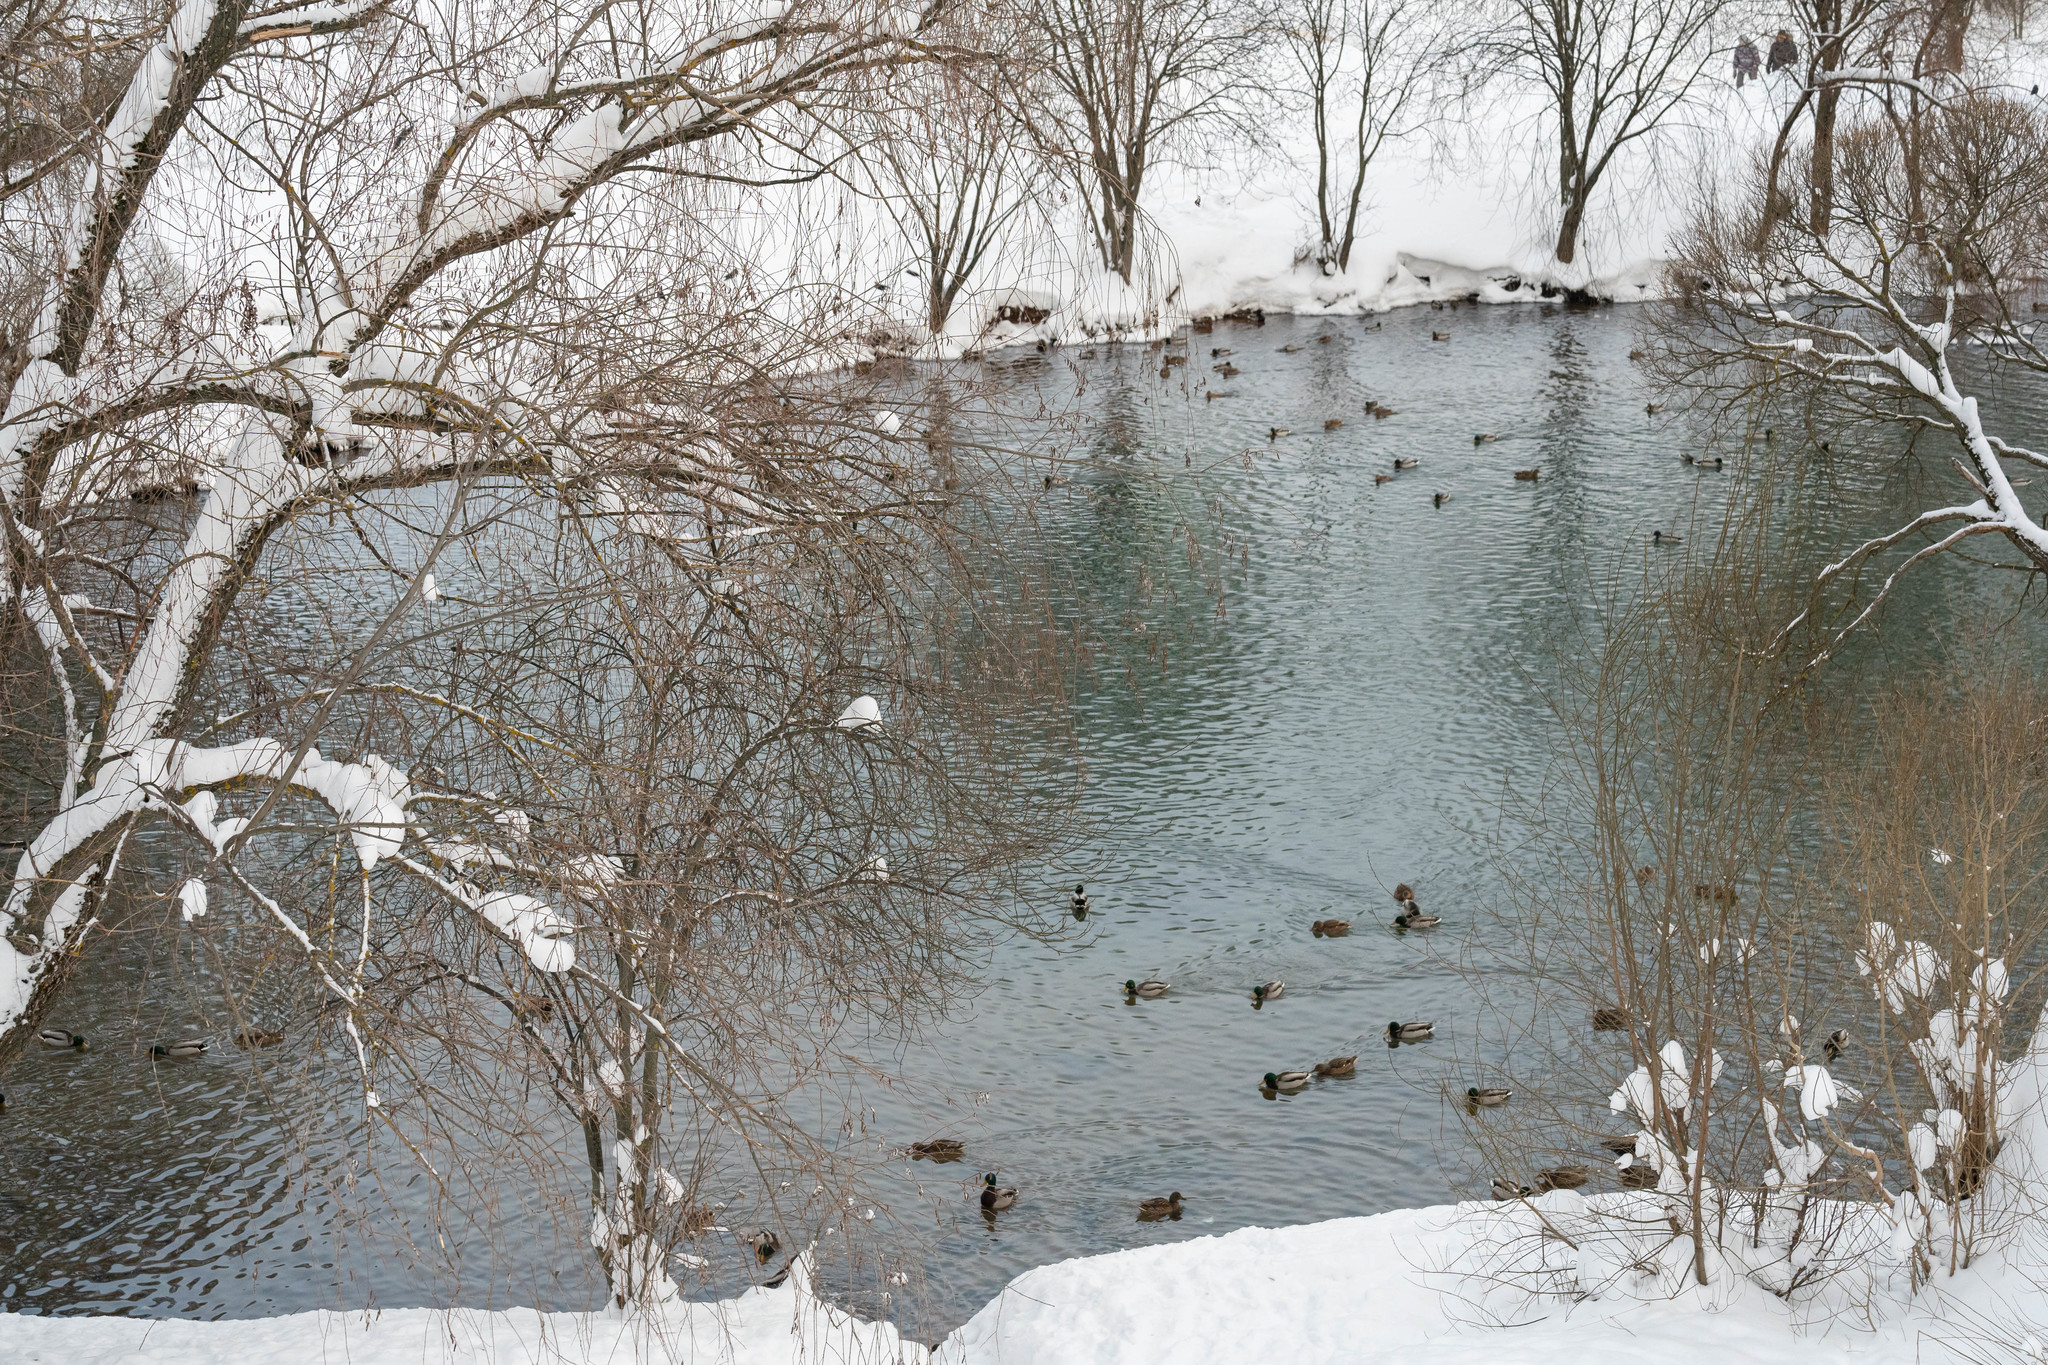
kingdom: Animalia
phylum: Chordata
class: Aves
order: Anseriformes
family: Anatidae
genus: Anas
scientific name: Anas platyrhynchos
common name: Mallard
